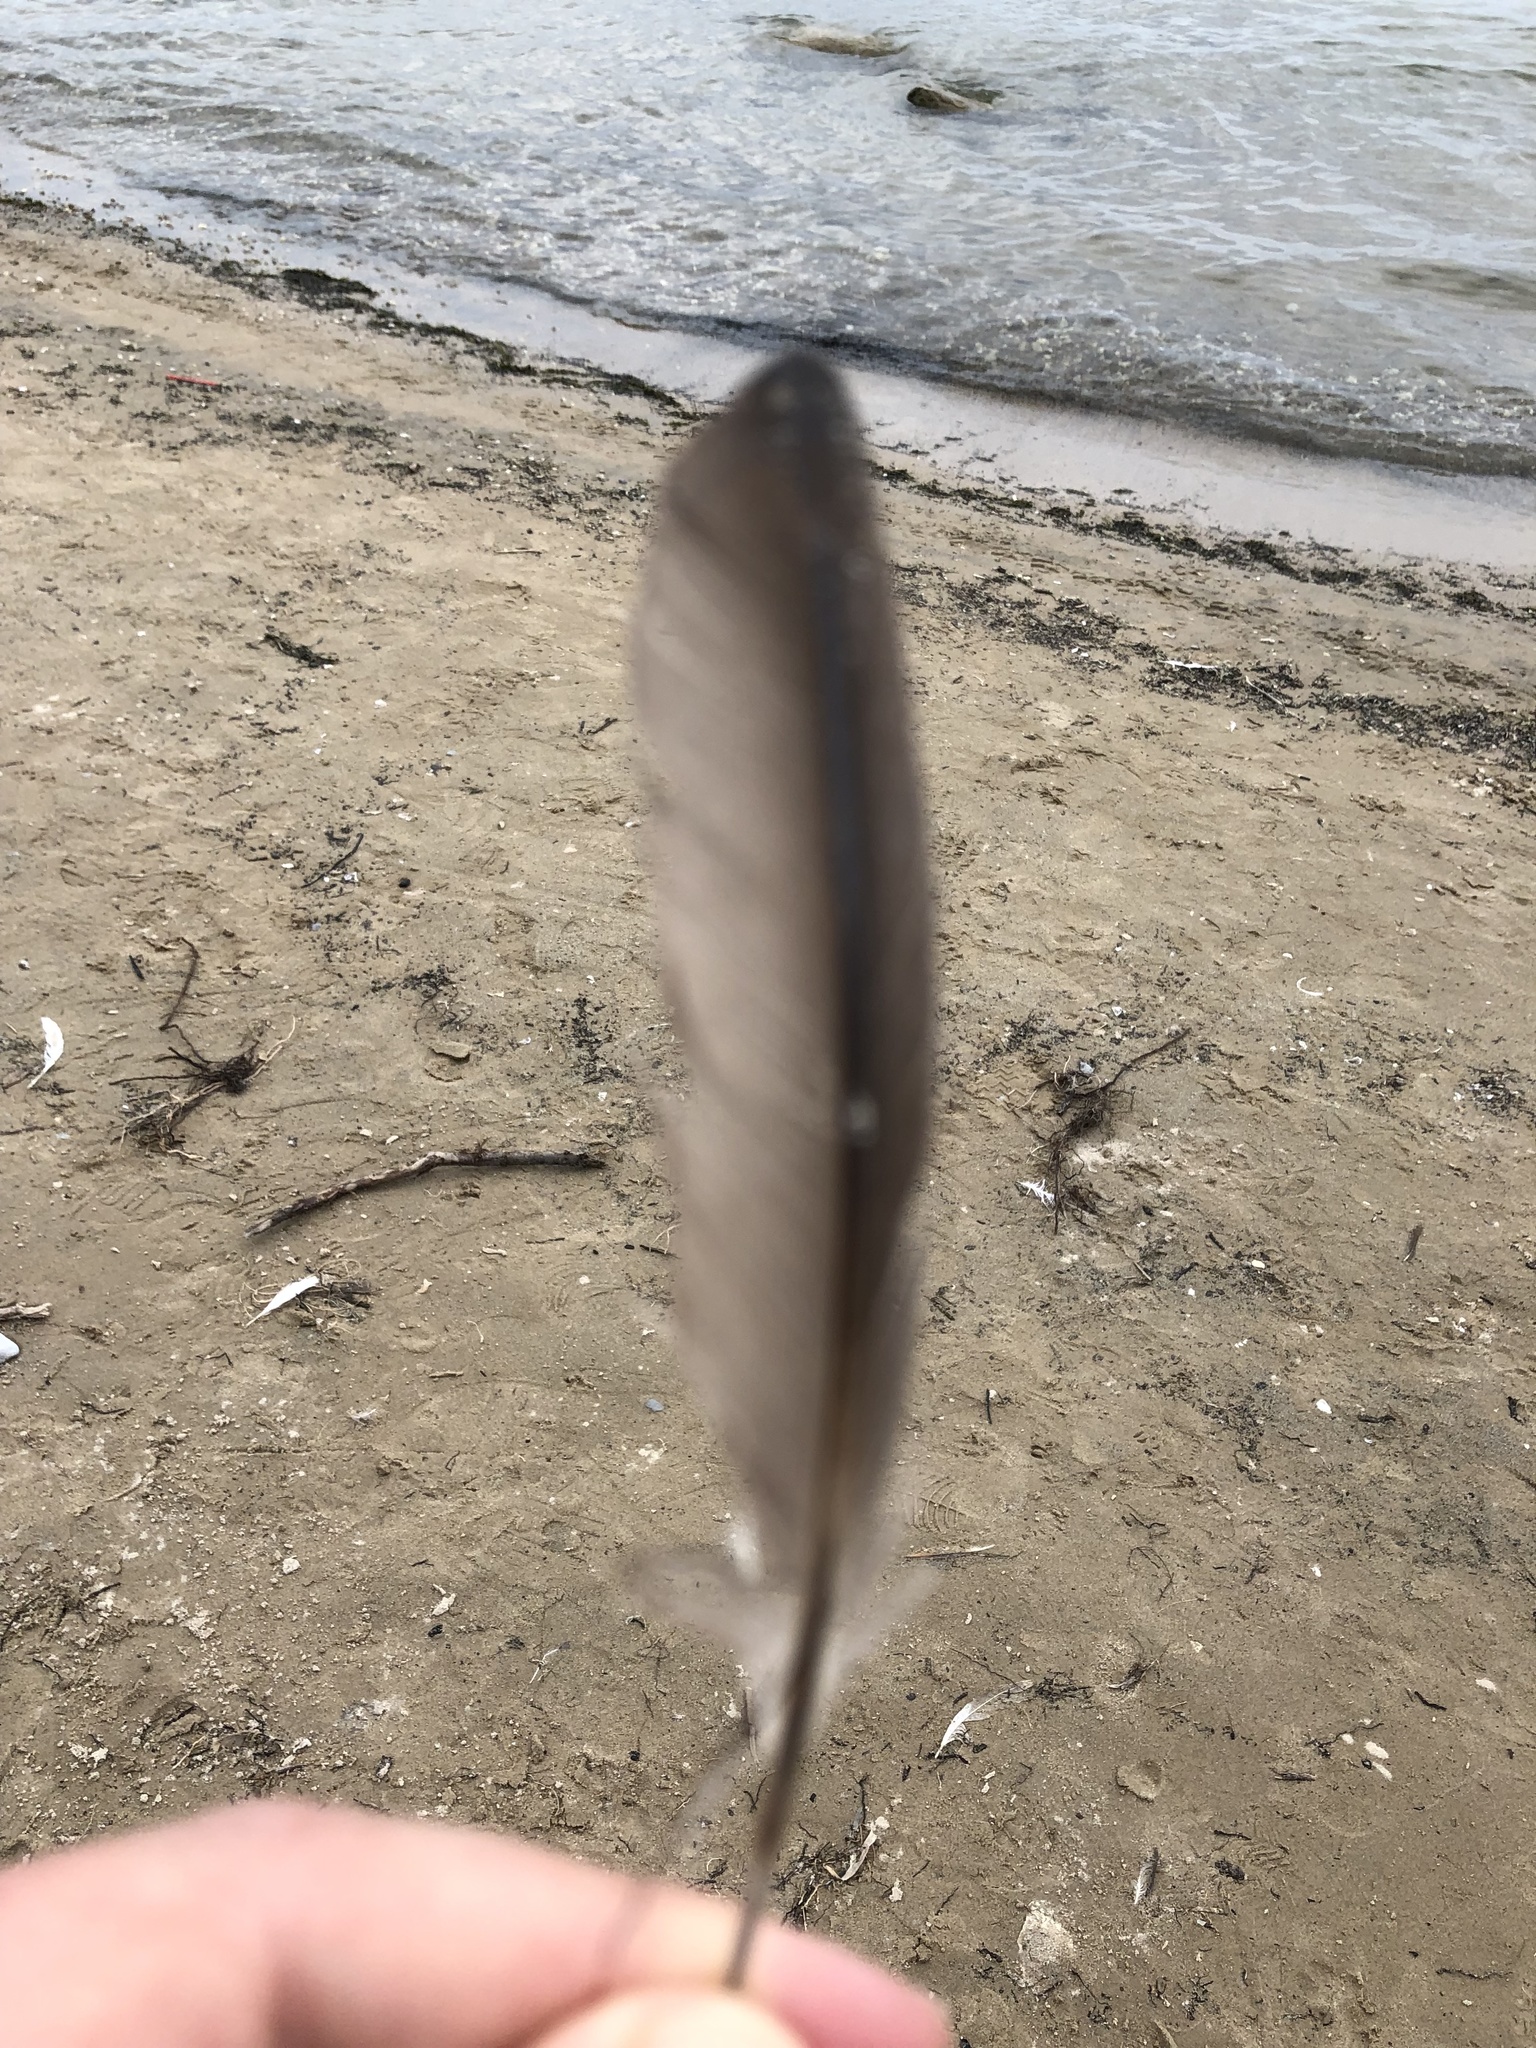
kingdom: Animalia
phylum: Chordata
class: Aves
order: Podicipediformes
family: Podicipedidae
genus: Podilymbus
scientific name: Podilymbus podiceps
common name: Pied-billed grebe
